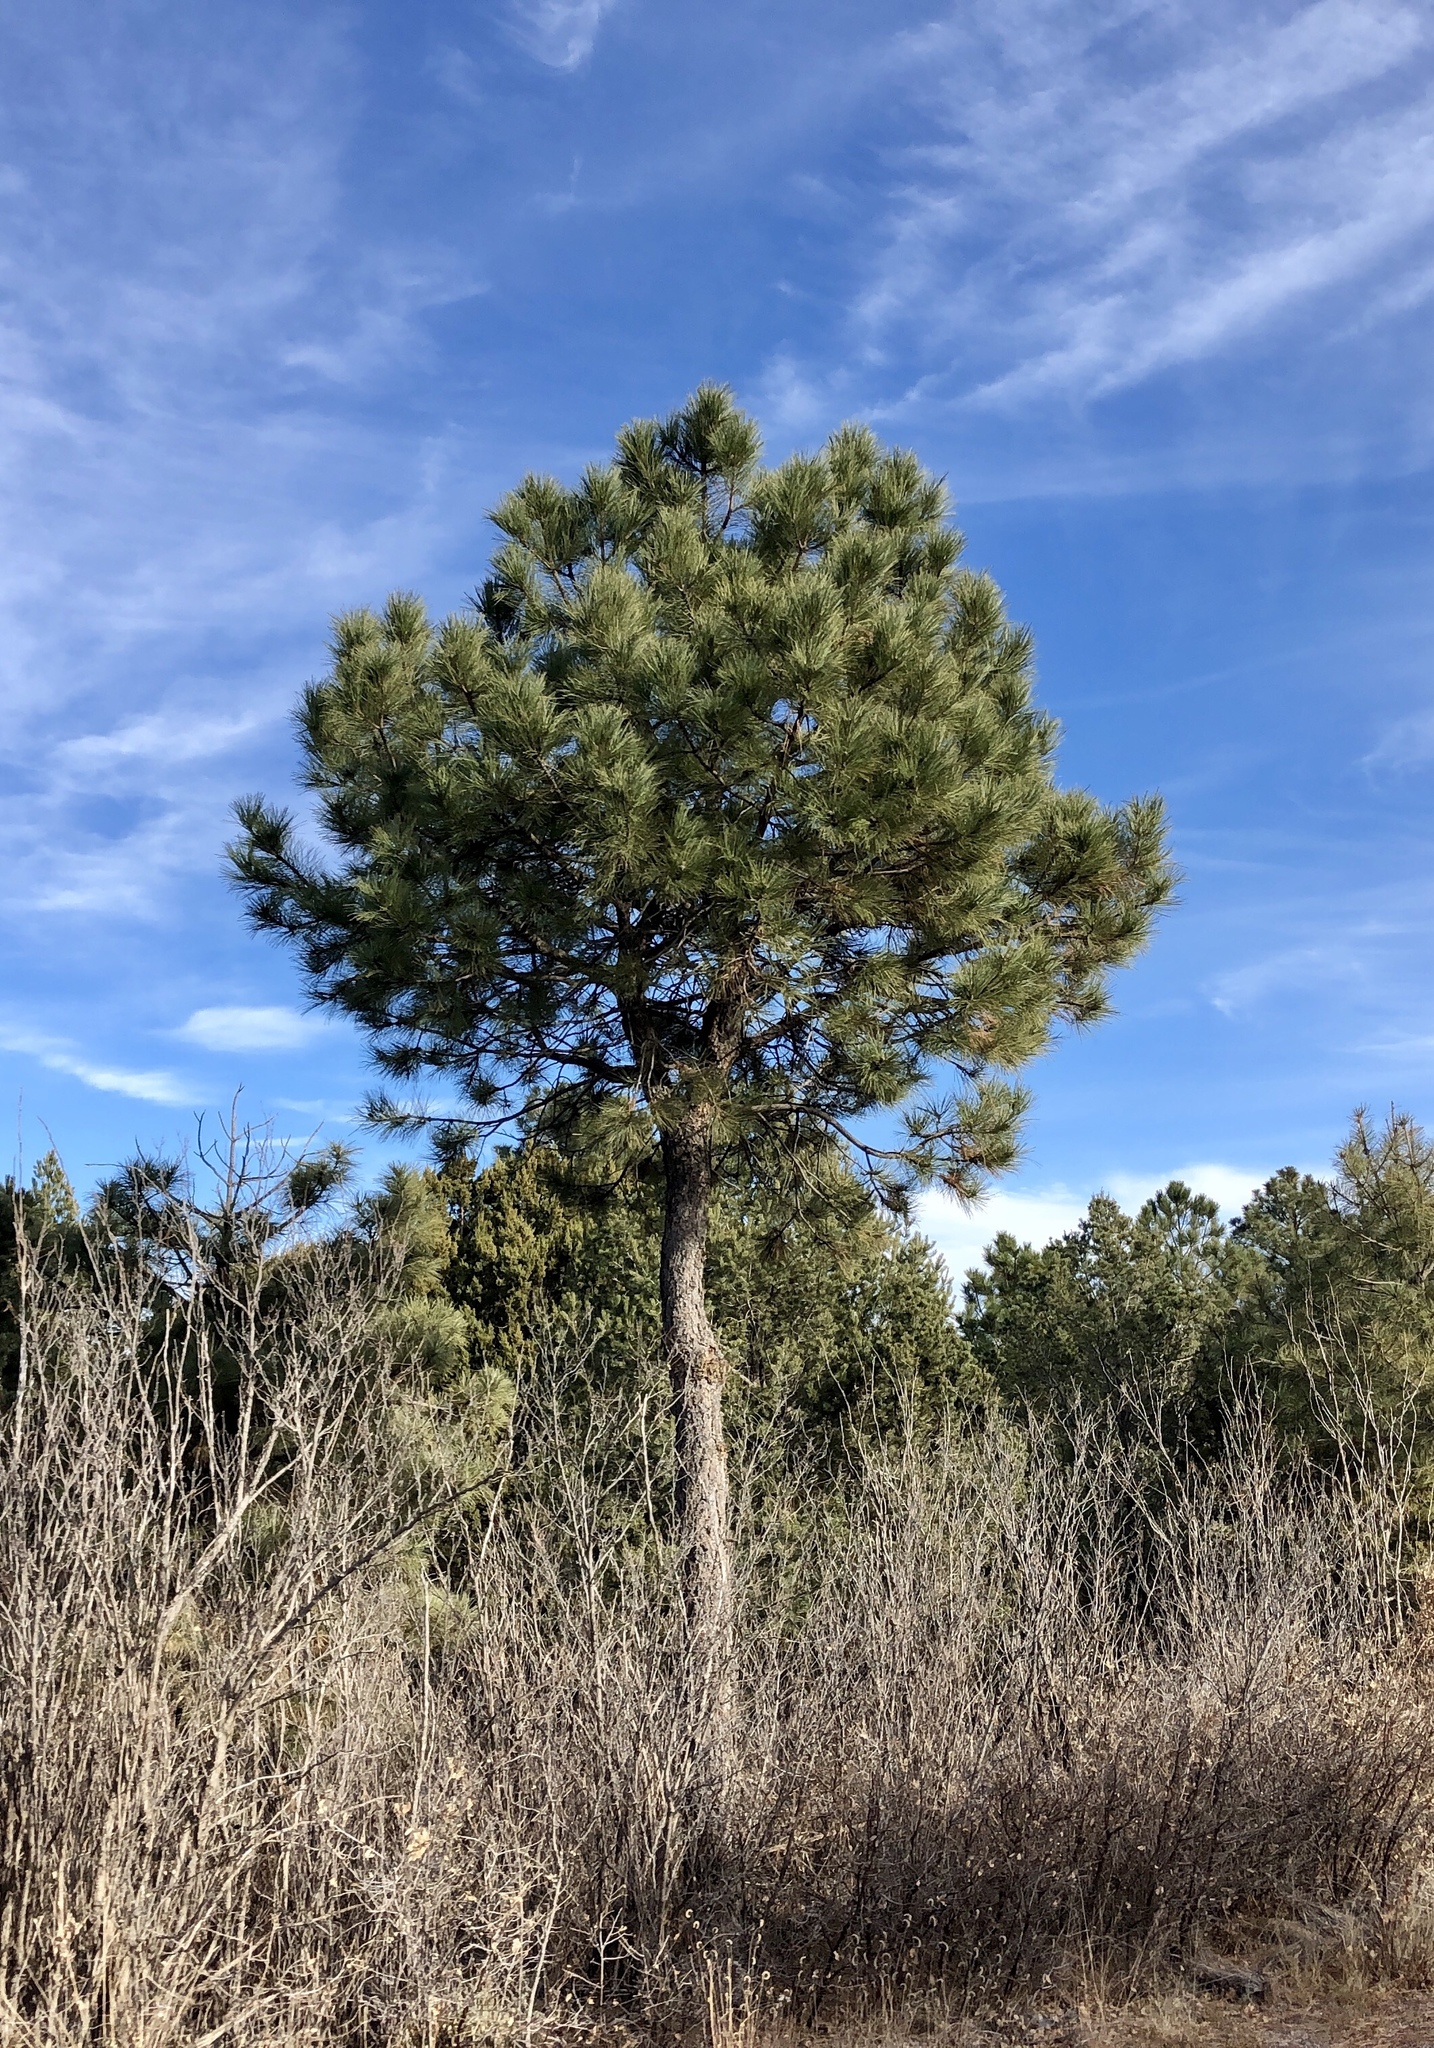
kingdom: Plantae
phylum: Tracheophyta
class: Pinopsida
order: Pinales
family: Pinaceae
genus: Pinus
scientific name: Pinus ponderosa
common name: Western yellow-pine
